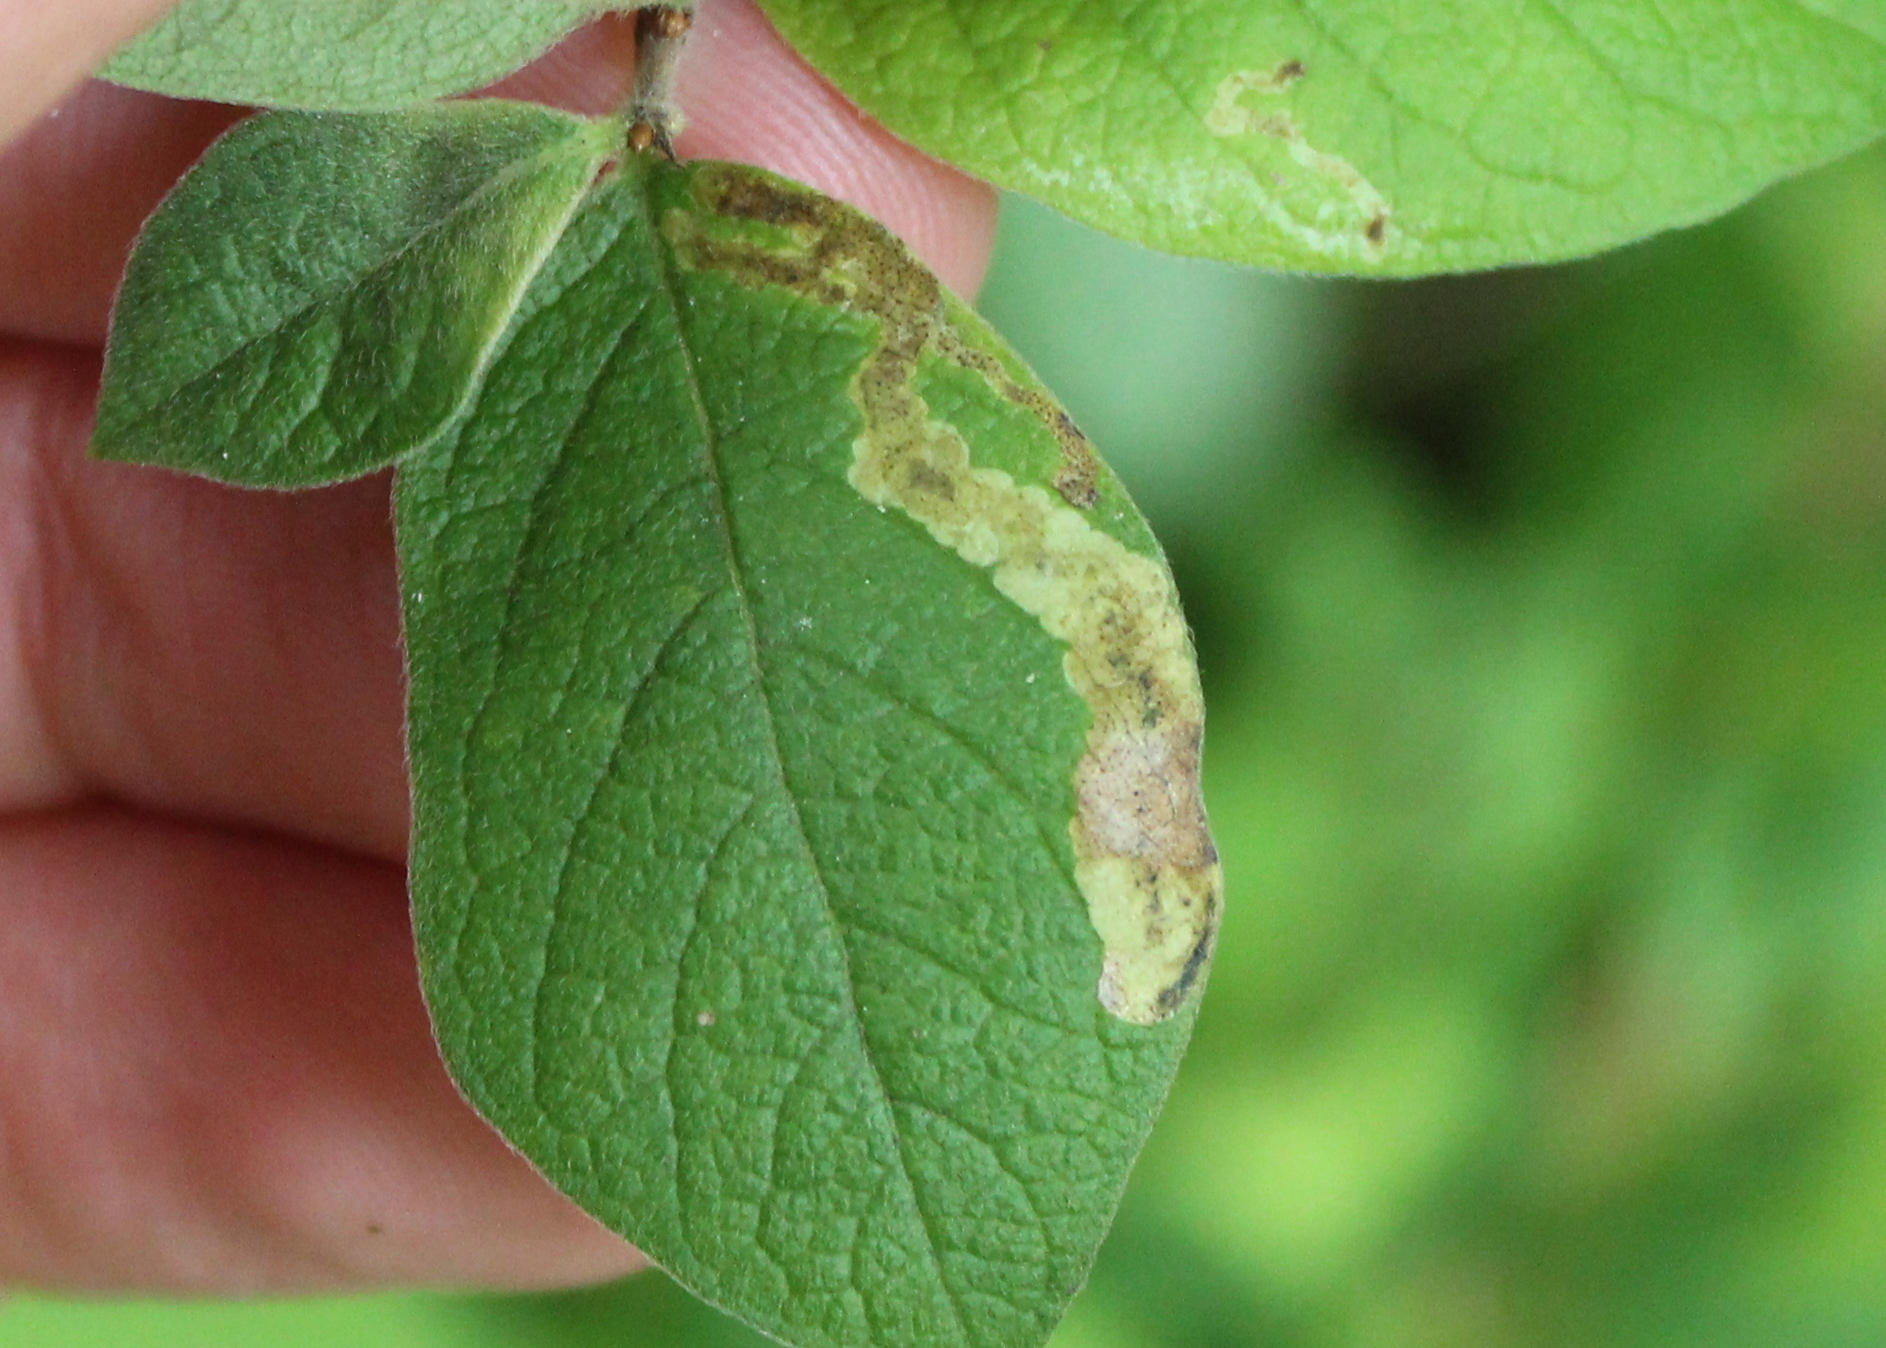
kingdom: Animalia
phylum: Arthropoda
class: Insecta
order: Diptera
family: Agromyzidae
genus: Aulagromyza
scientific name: Aulagromyza luteoscutellata
